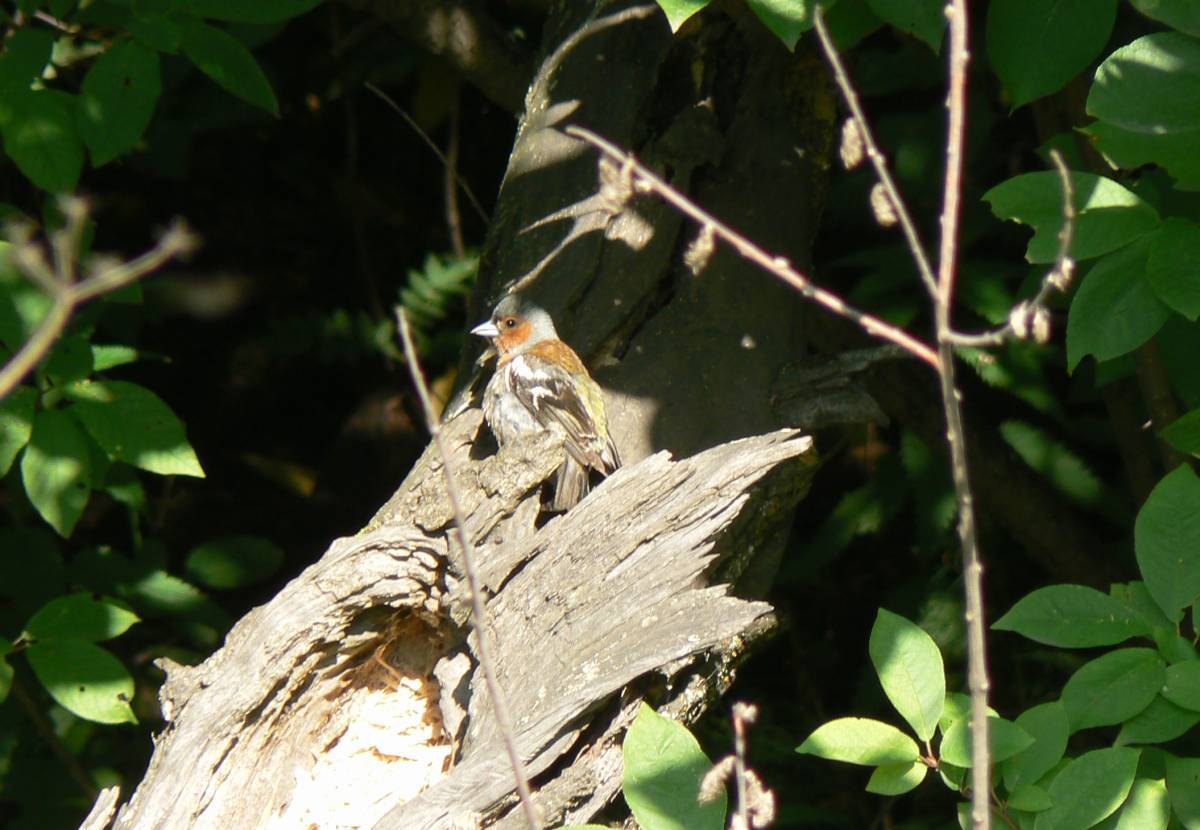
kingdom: Animalia
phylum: Chordata
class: Aves
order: Passeriformes
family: Fringillidae
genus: Fringilla
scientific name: Fringilla coelebs
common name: Common chaffinch
